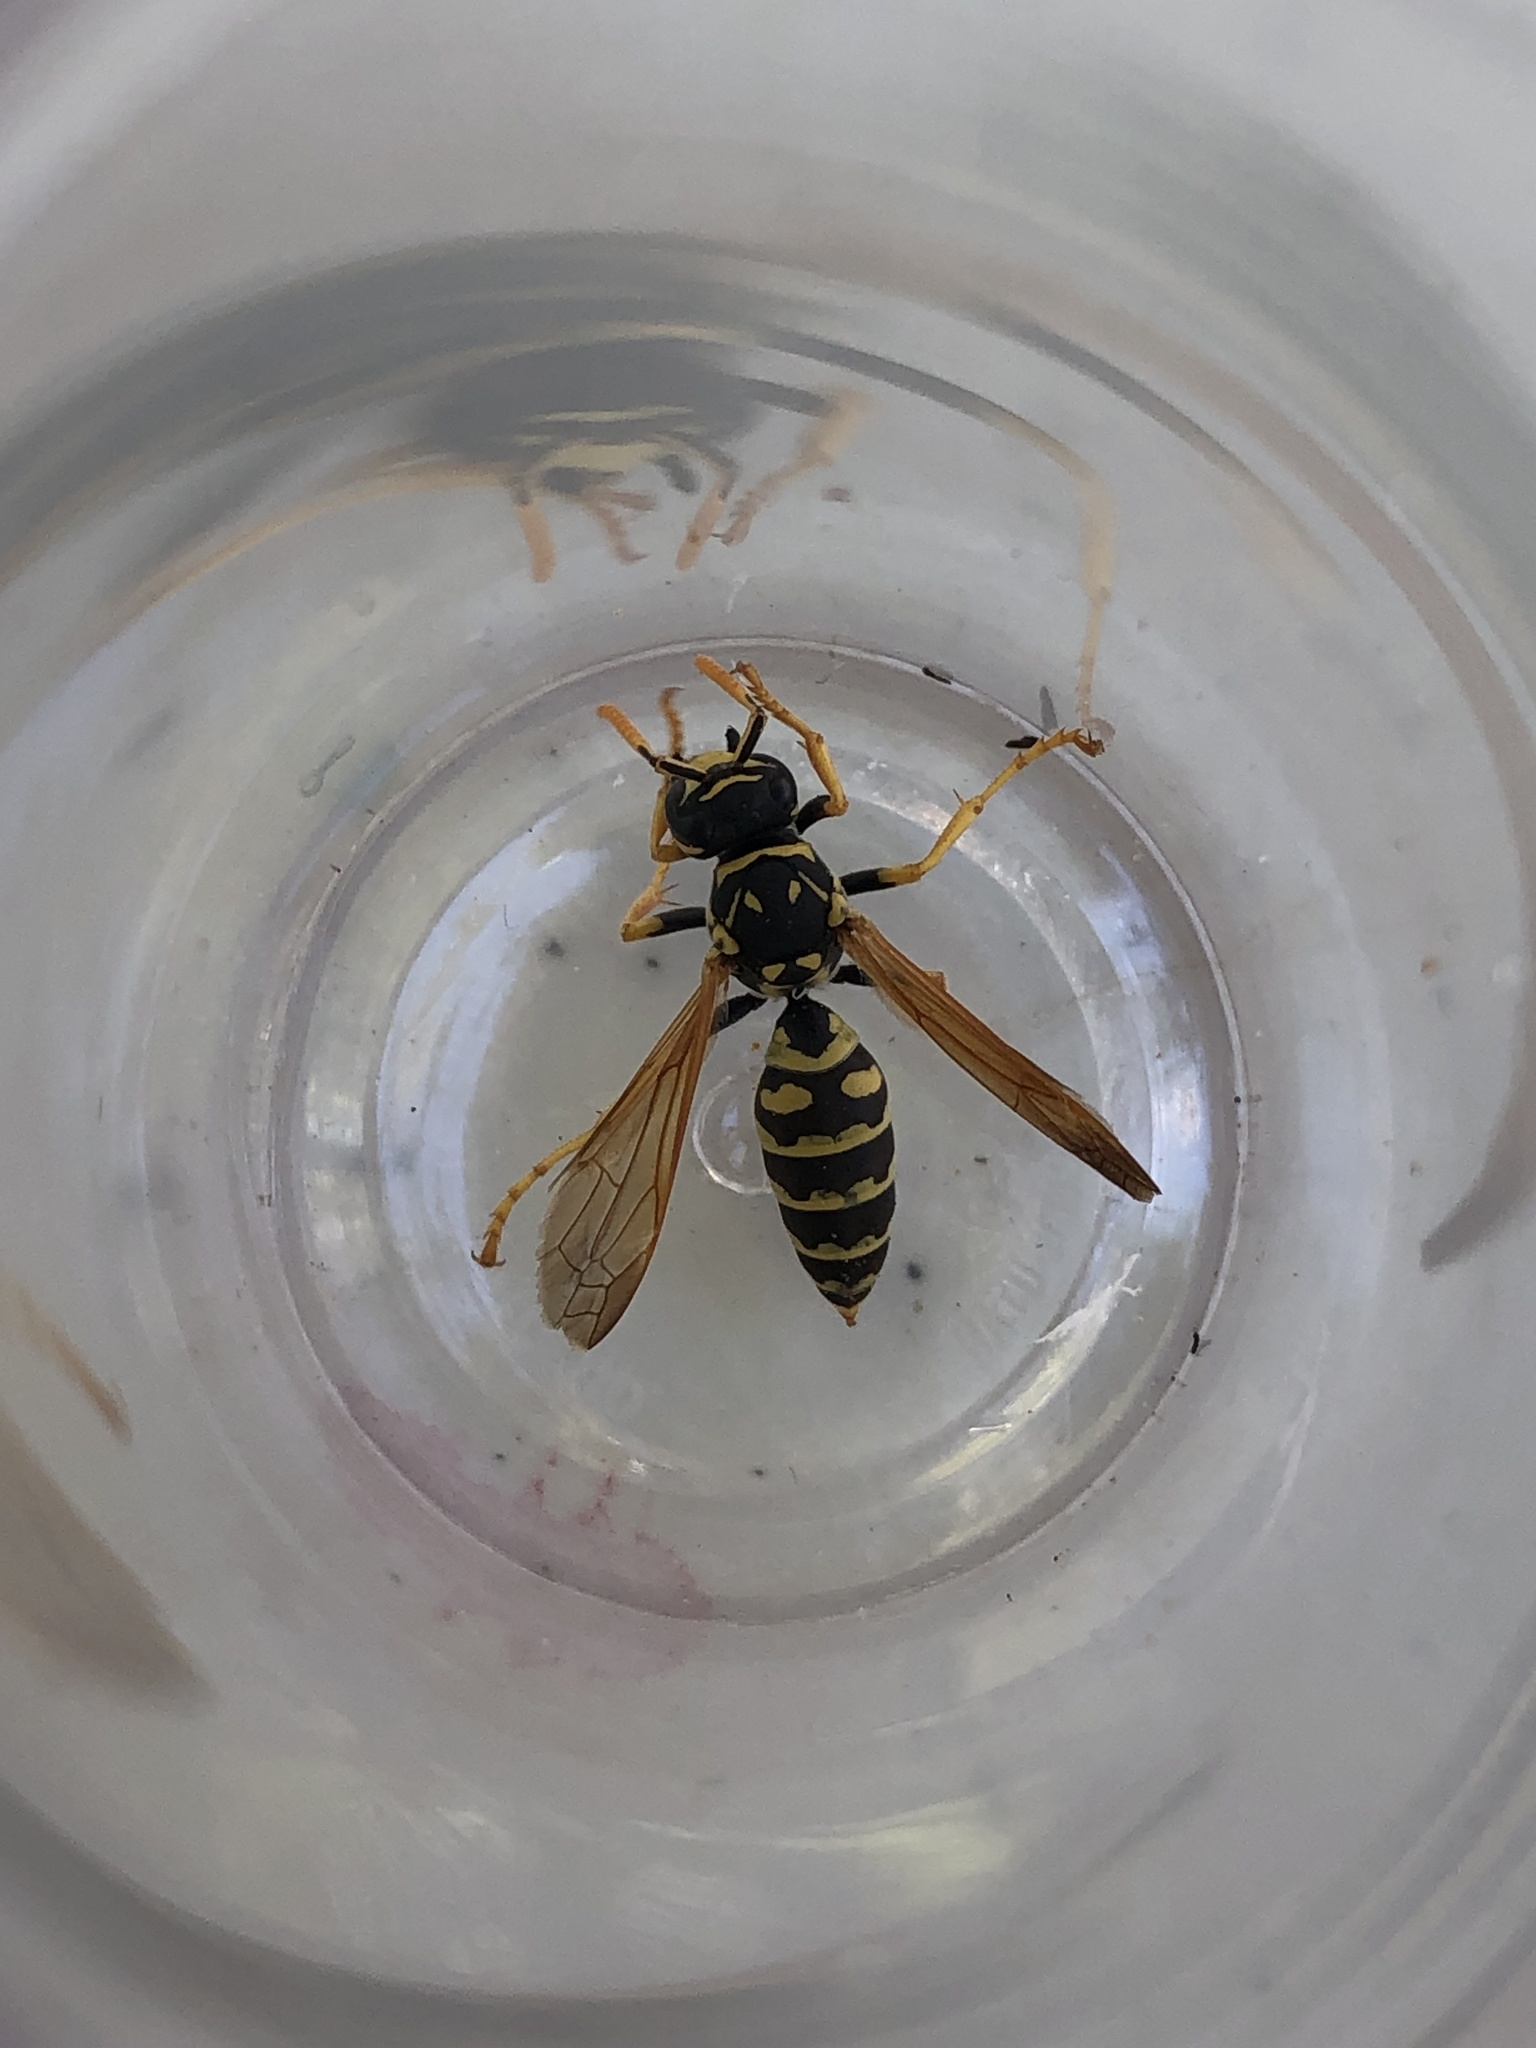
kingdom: Animalia
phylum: Arthropoda
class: Insecta
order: Hymenoptera
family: Eumenidae
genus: Polistes
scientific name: Polistes dominula
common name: Paper wasp
